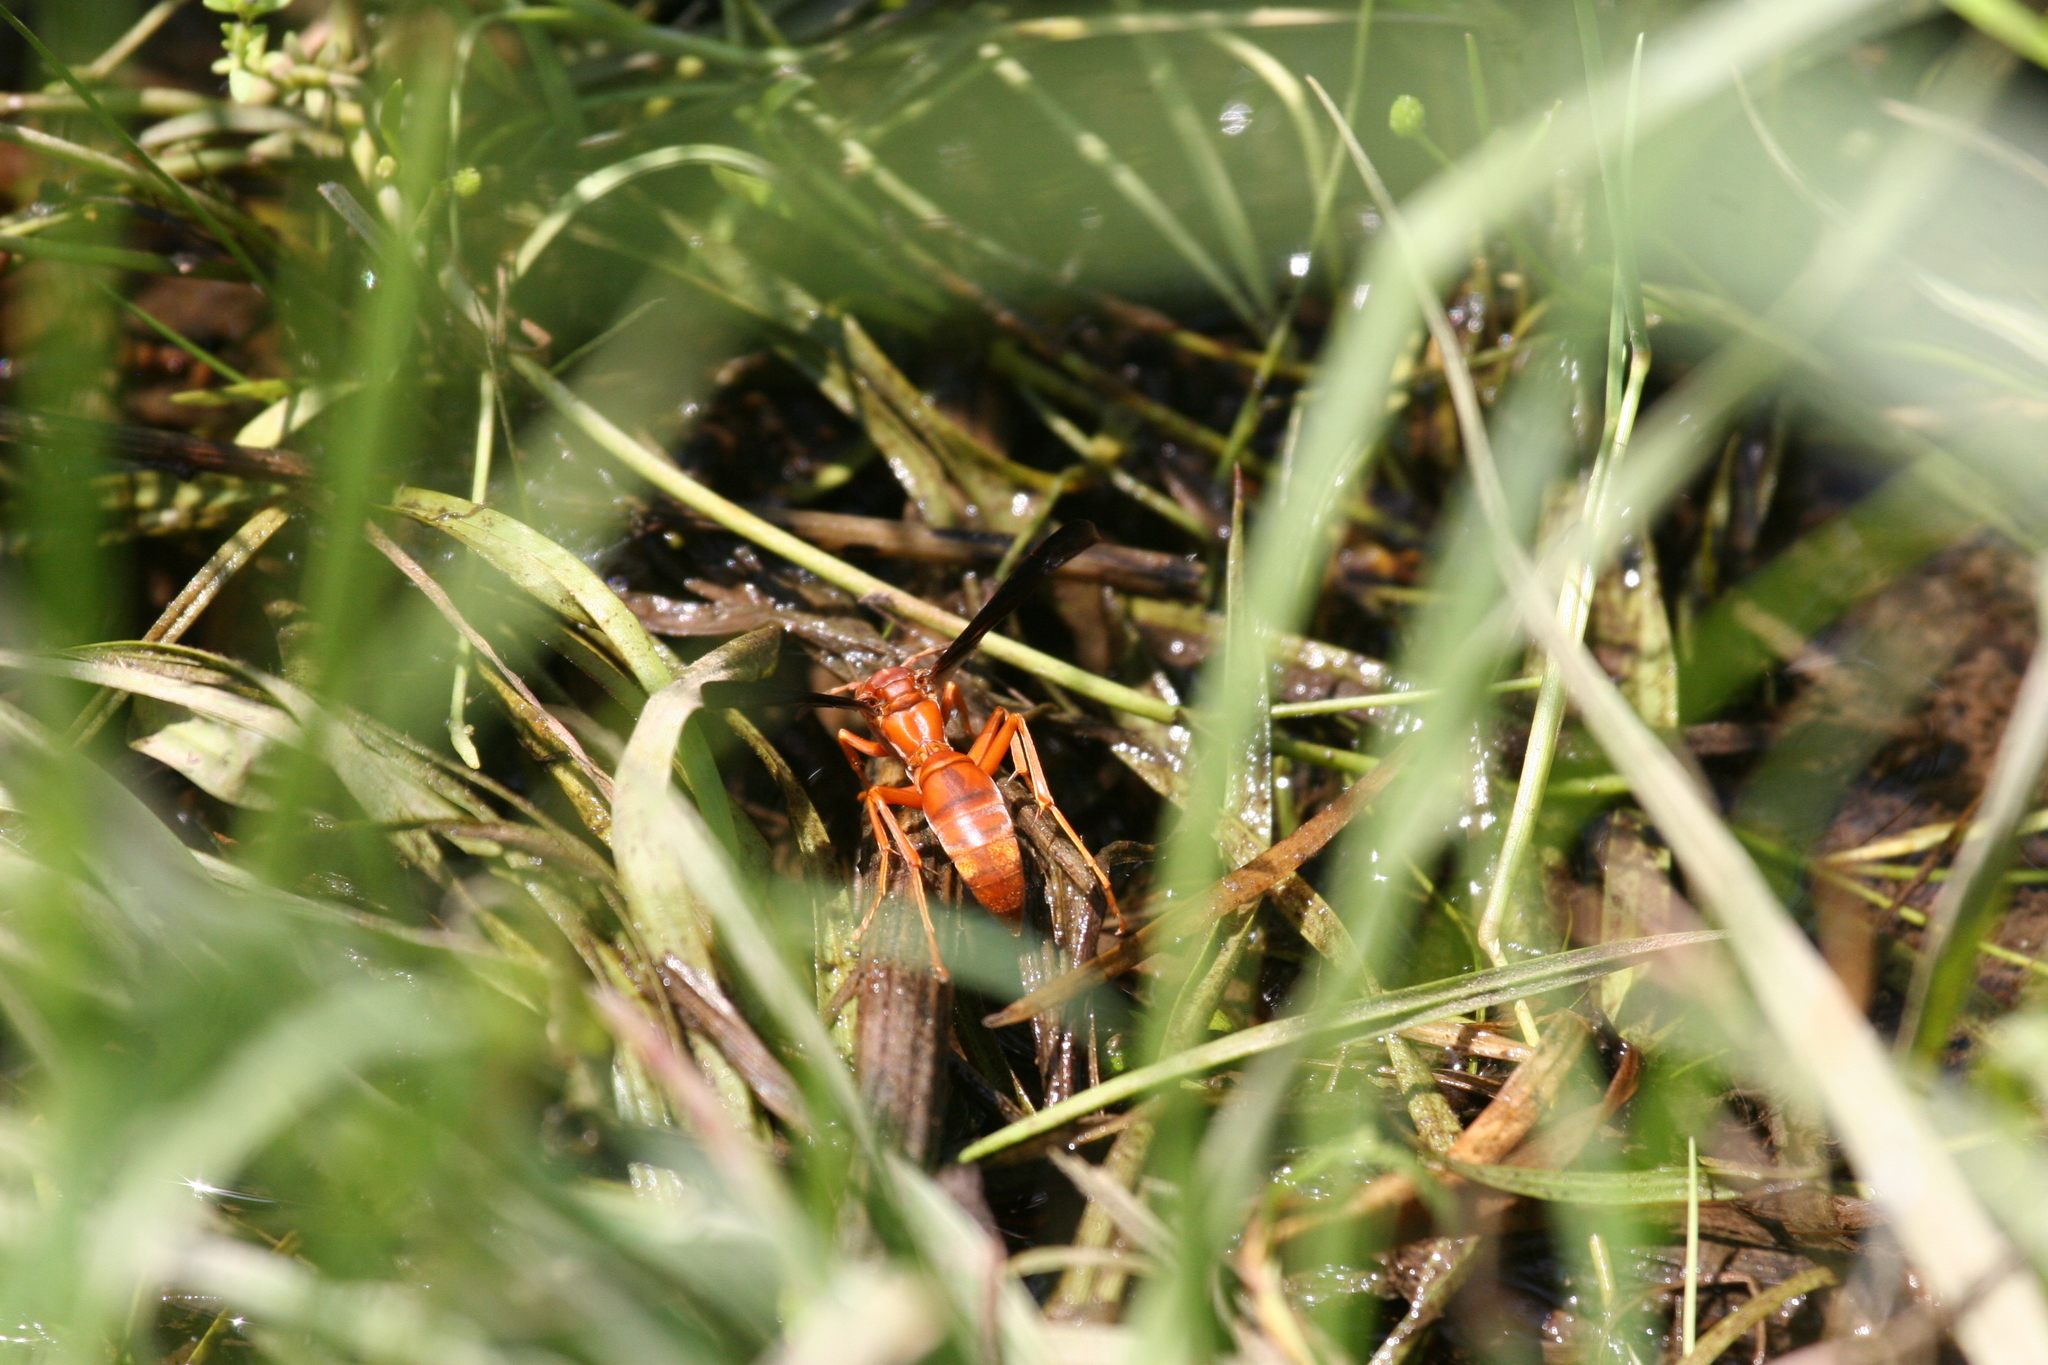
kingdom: Animalia
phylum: Arthropoda
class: Insecta
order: Hymenoptera
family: Eumenidae
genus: Polistes
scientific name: Polistes
